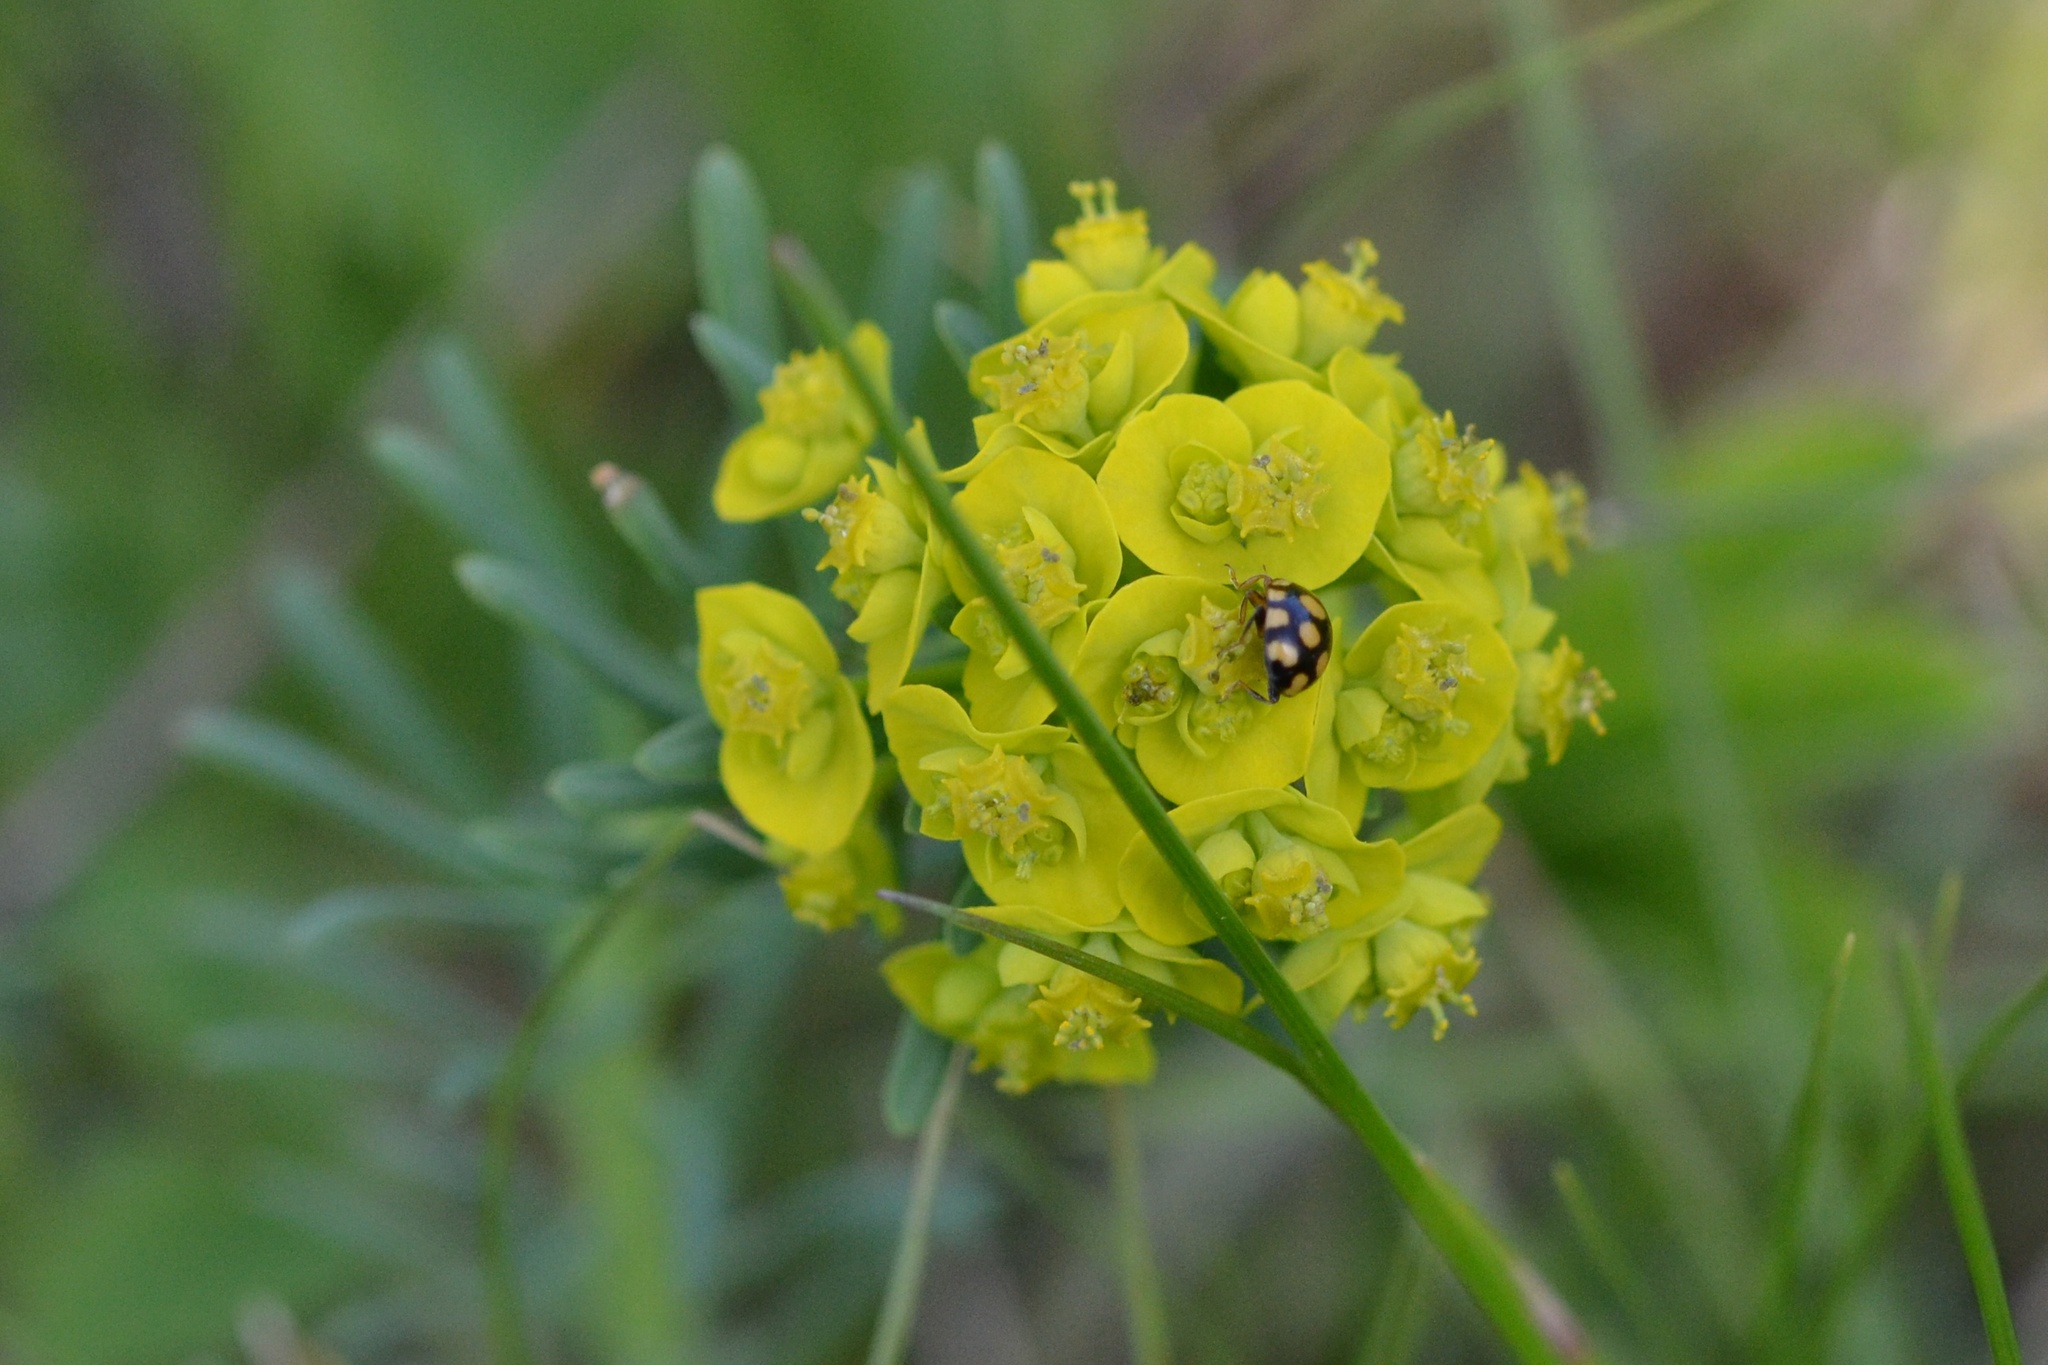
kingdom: Plantae
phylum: Tracheophyta
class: Magnoliopsida
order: Malpighiales
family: Euphorbiaceae
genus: Euphorbia
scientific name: Euphorbia cyparissias
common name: Cypress spurge
